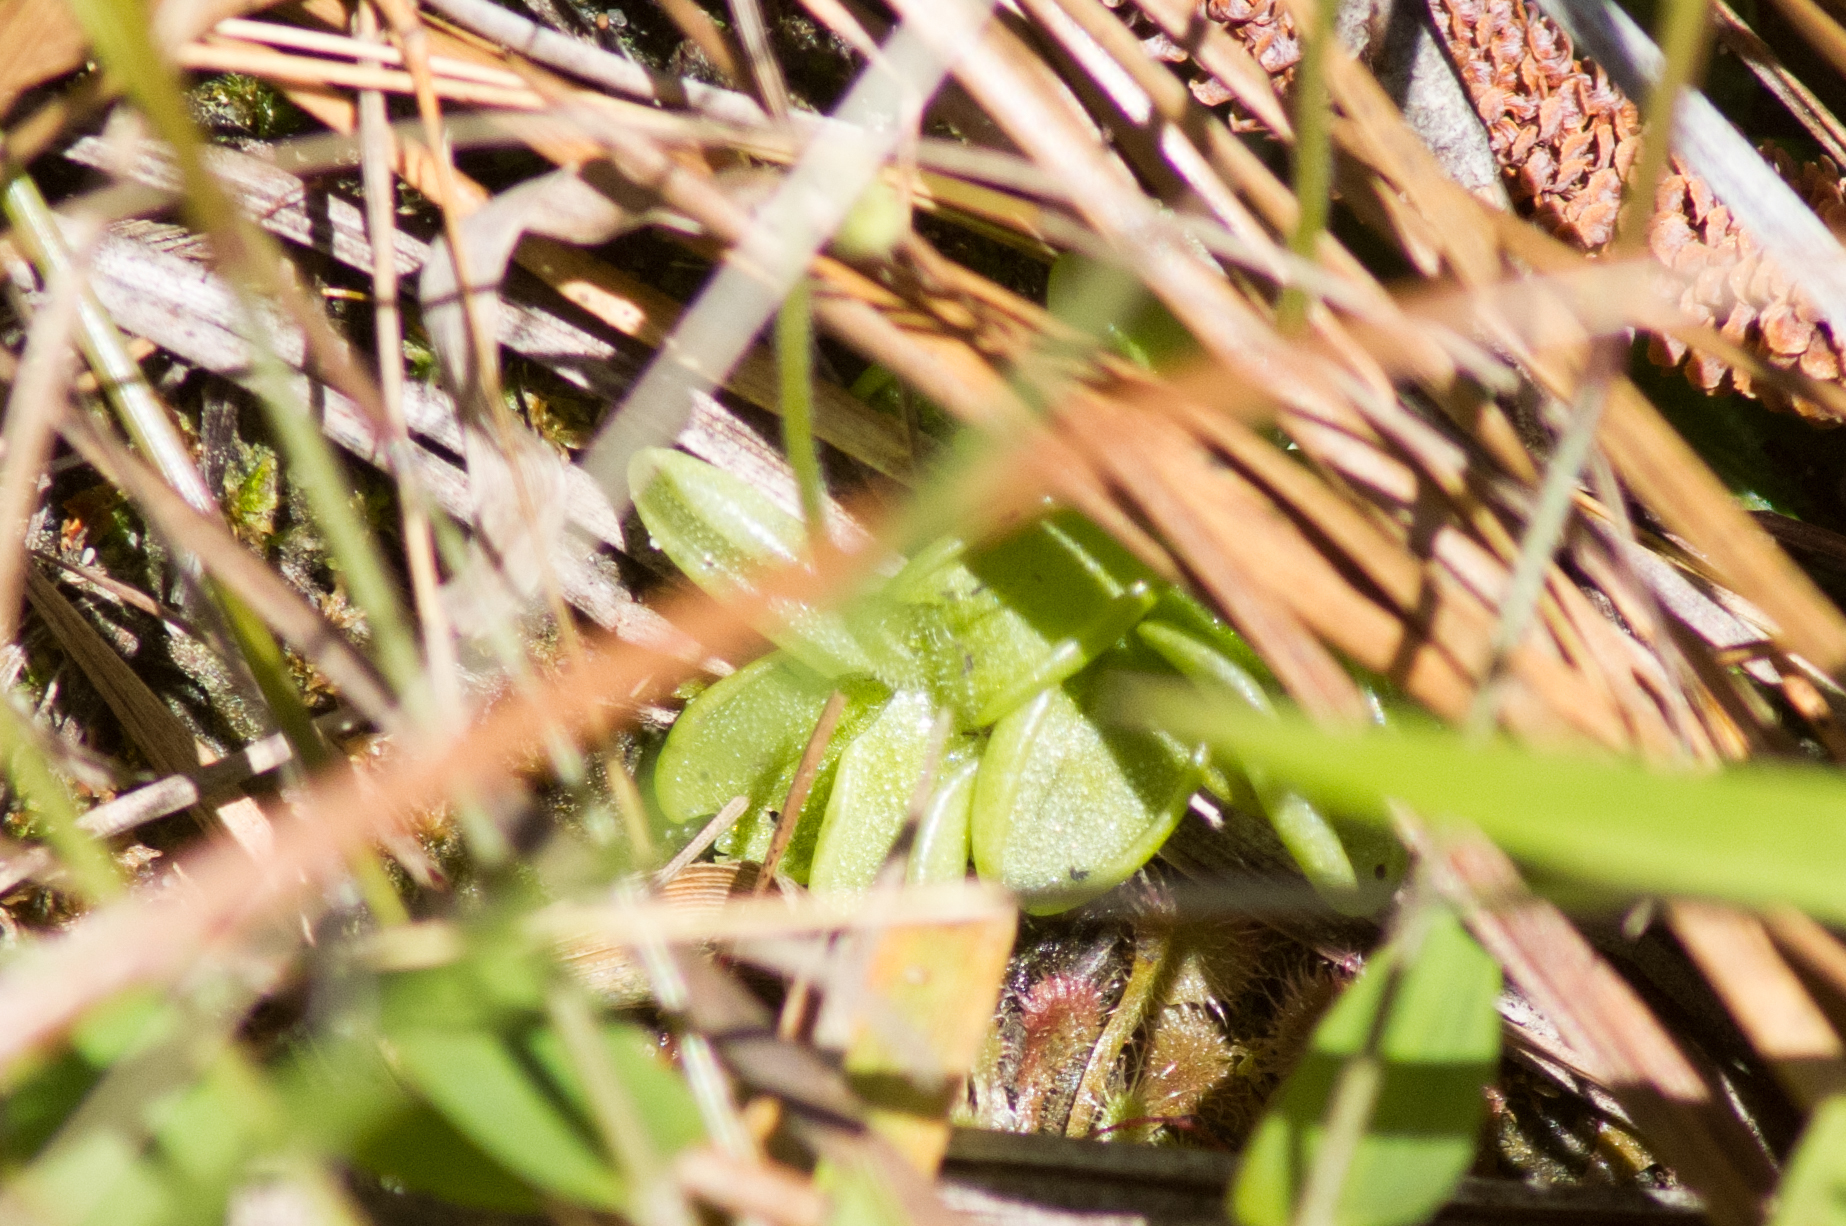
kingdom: Plantae
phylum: Tracheophyta
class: Magnoliopsida
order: Lamiales
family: Lentibulariaceae
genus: Pinguicula
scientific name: Pinguicula pumila
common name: Small butterwort
